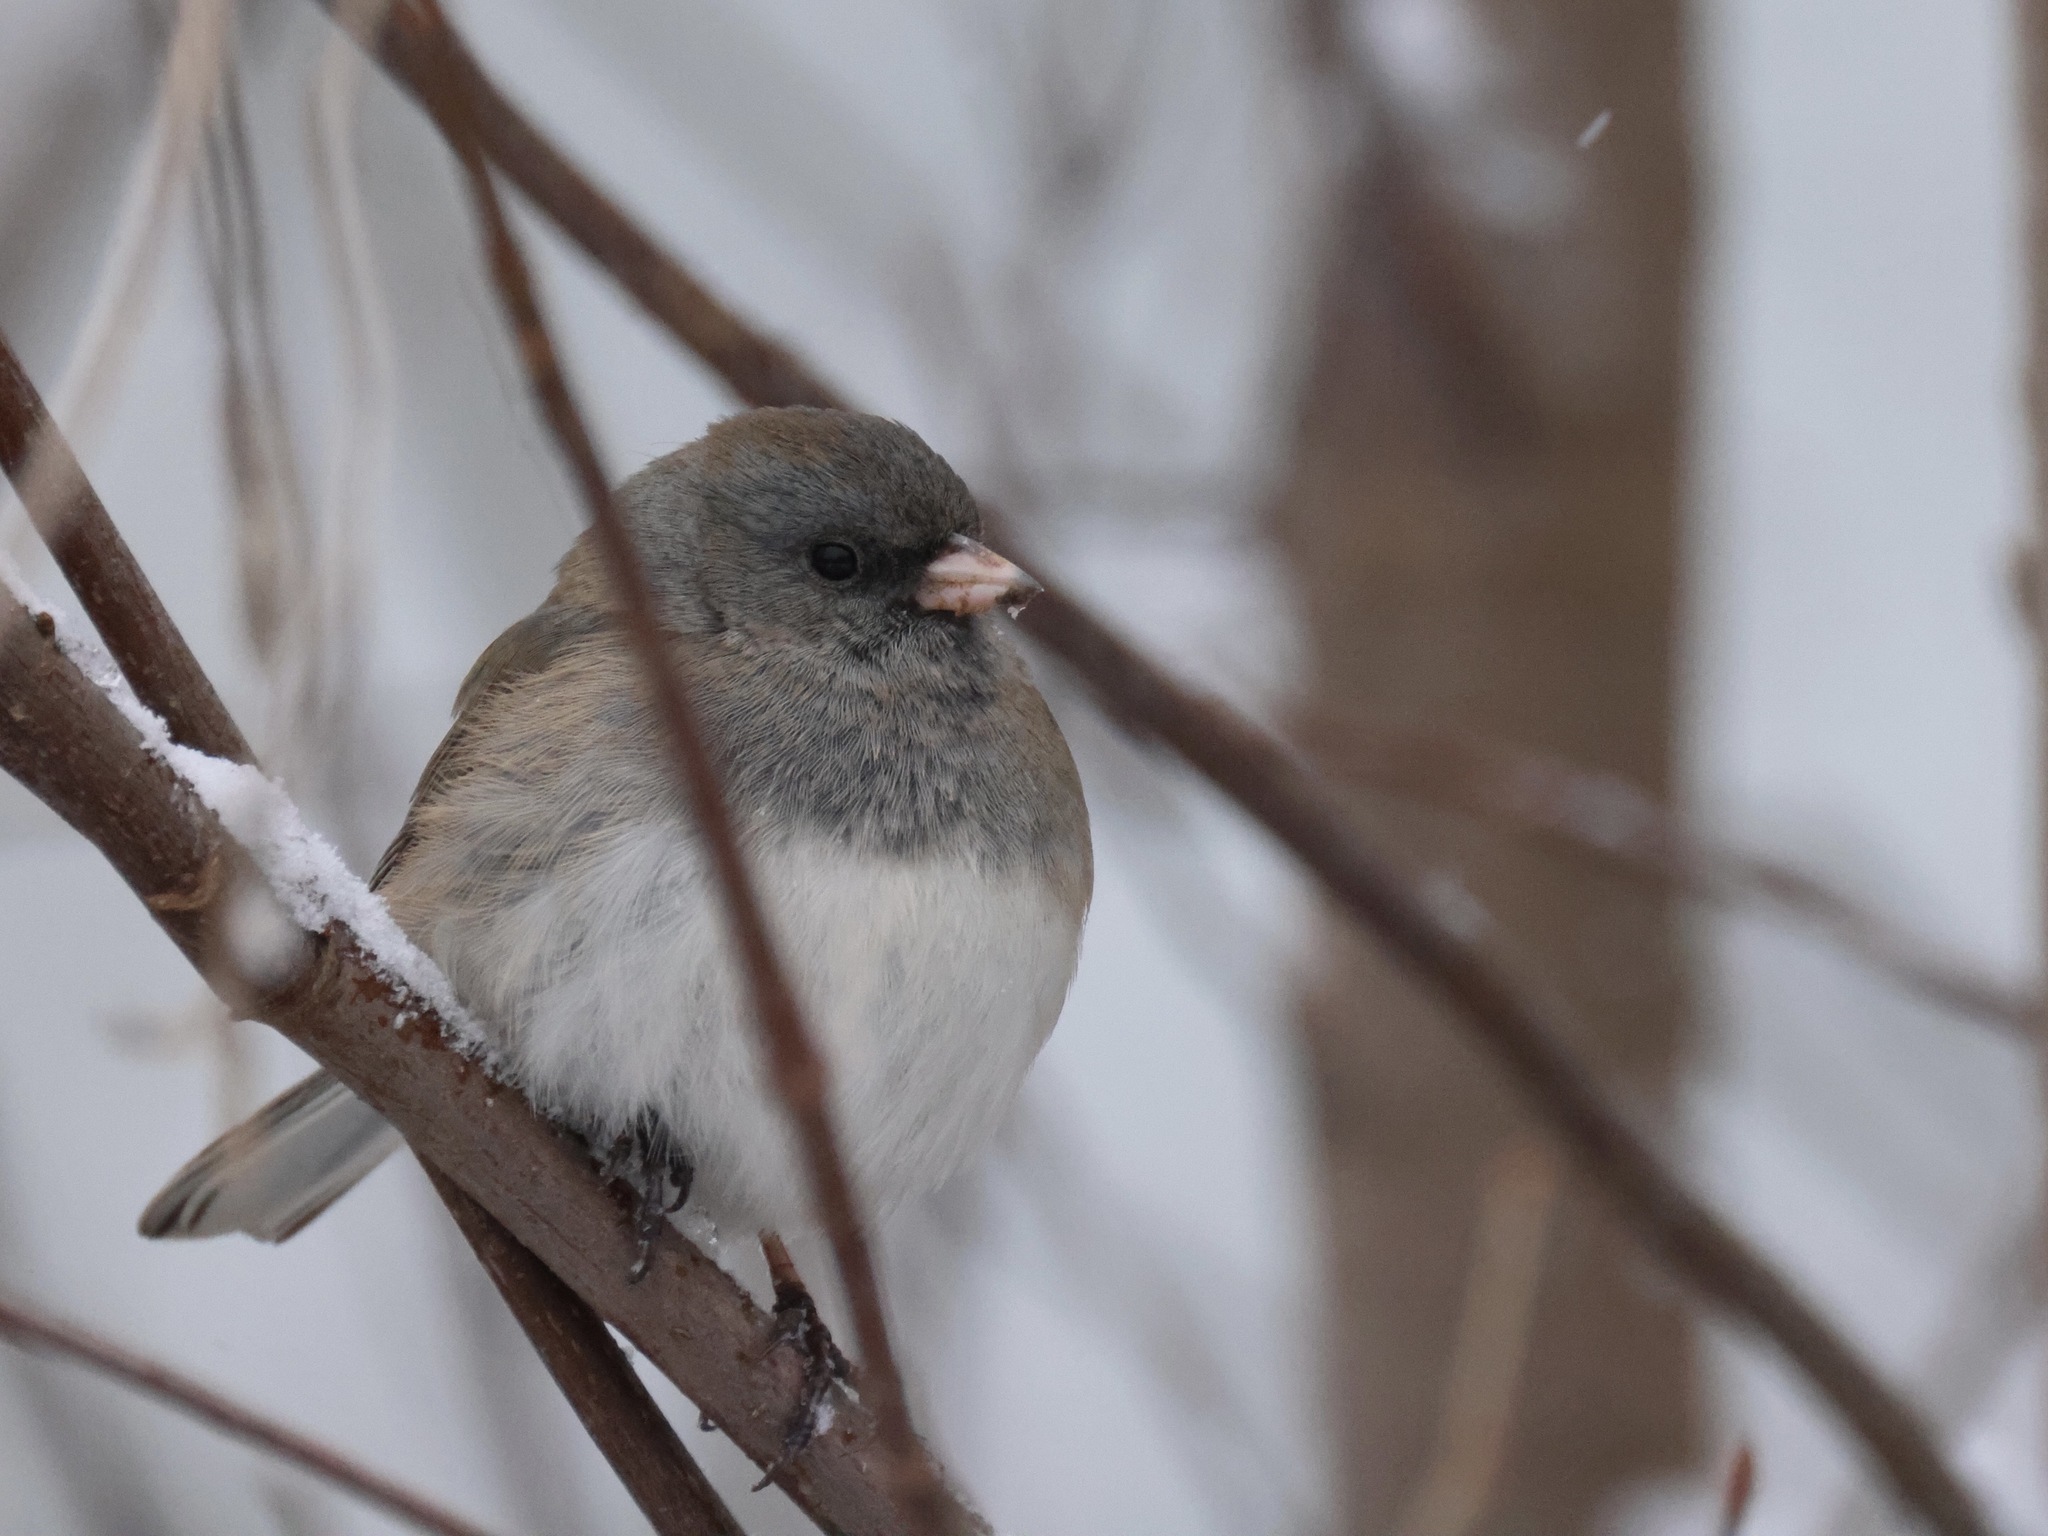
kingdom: Animalia
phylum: Chordata
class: Aves
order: Passeriformes
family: Passerellidae
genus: Junco
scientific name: Junco hyemalis
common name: Dark-eyed junco
